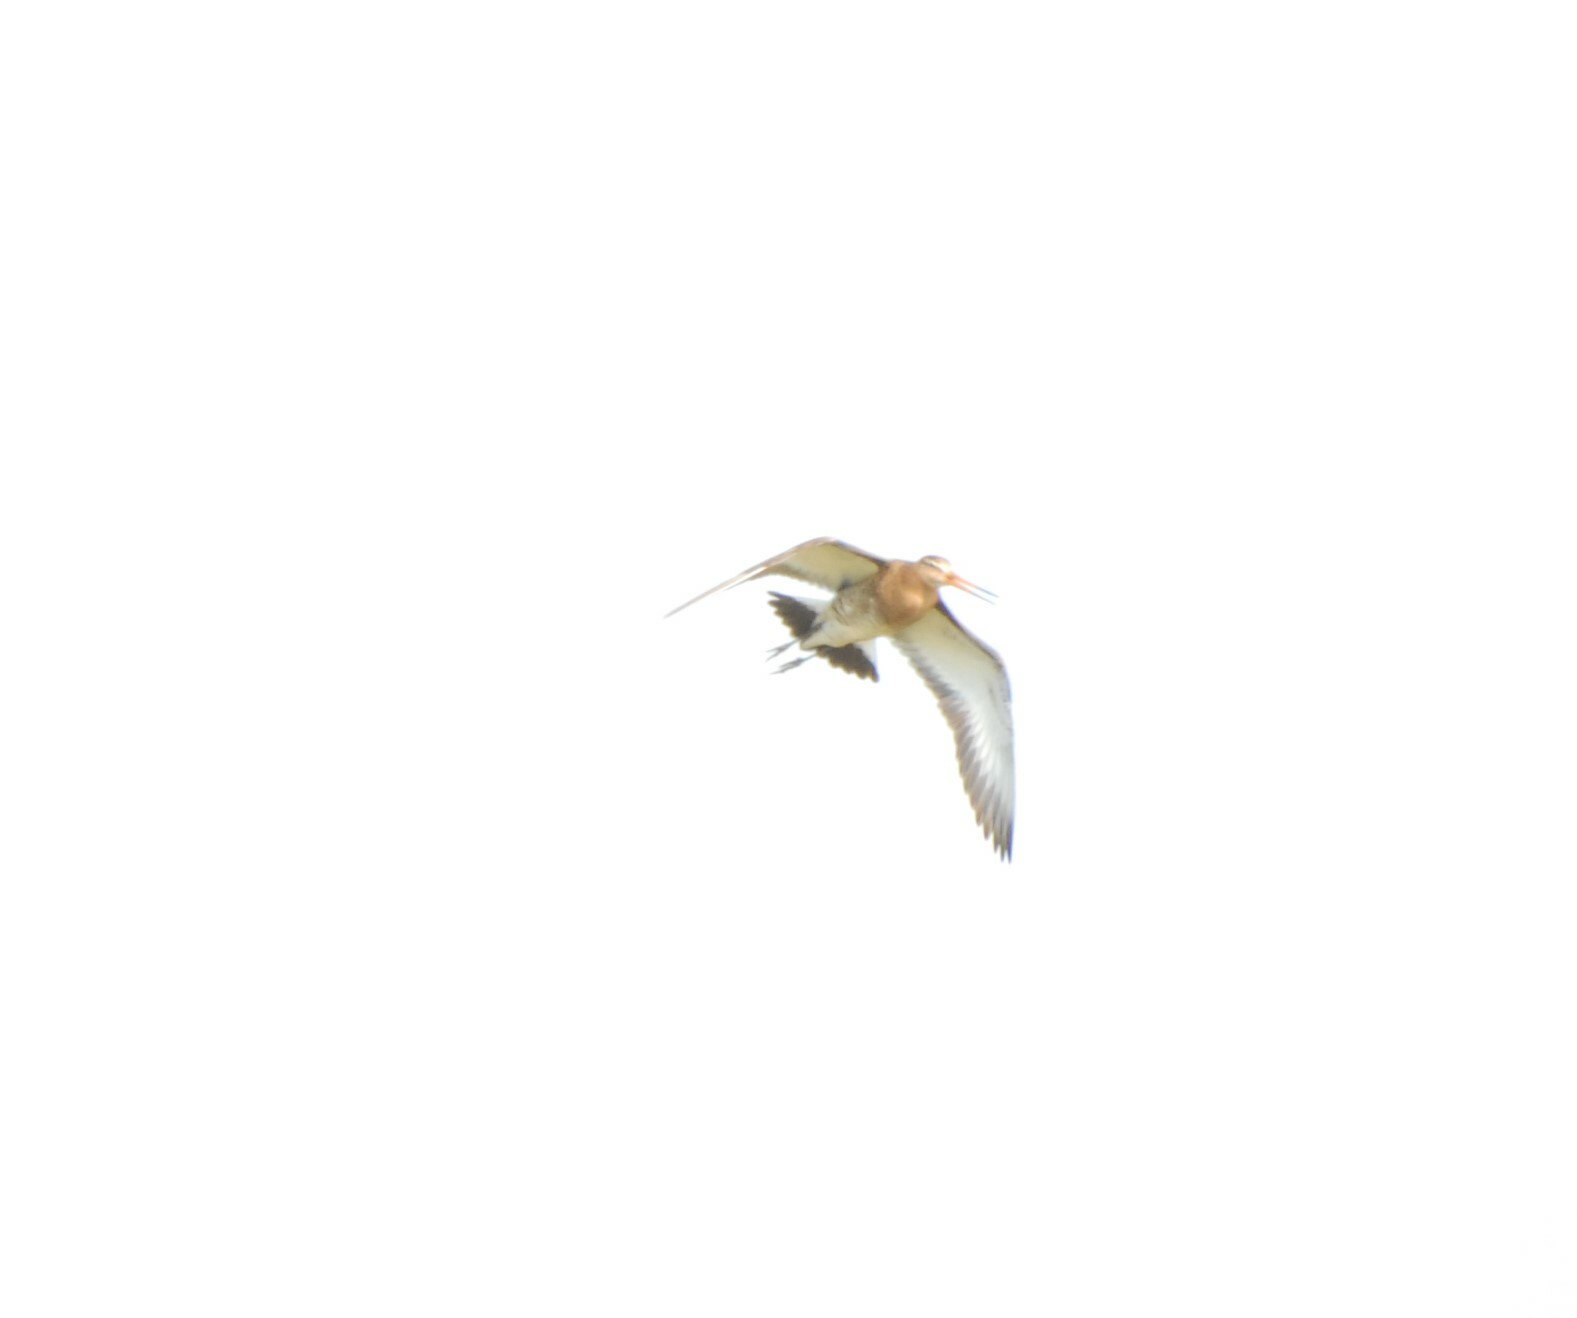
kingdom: Animalia
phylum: Chordata
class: Aves
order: Charadriiformes
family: Scolopacidae
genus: Limosa
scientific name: Limosa limosa
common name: Black-tailed godwit
